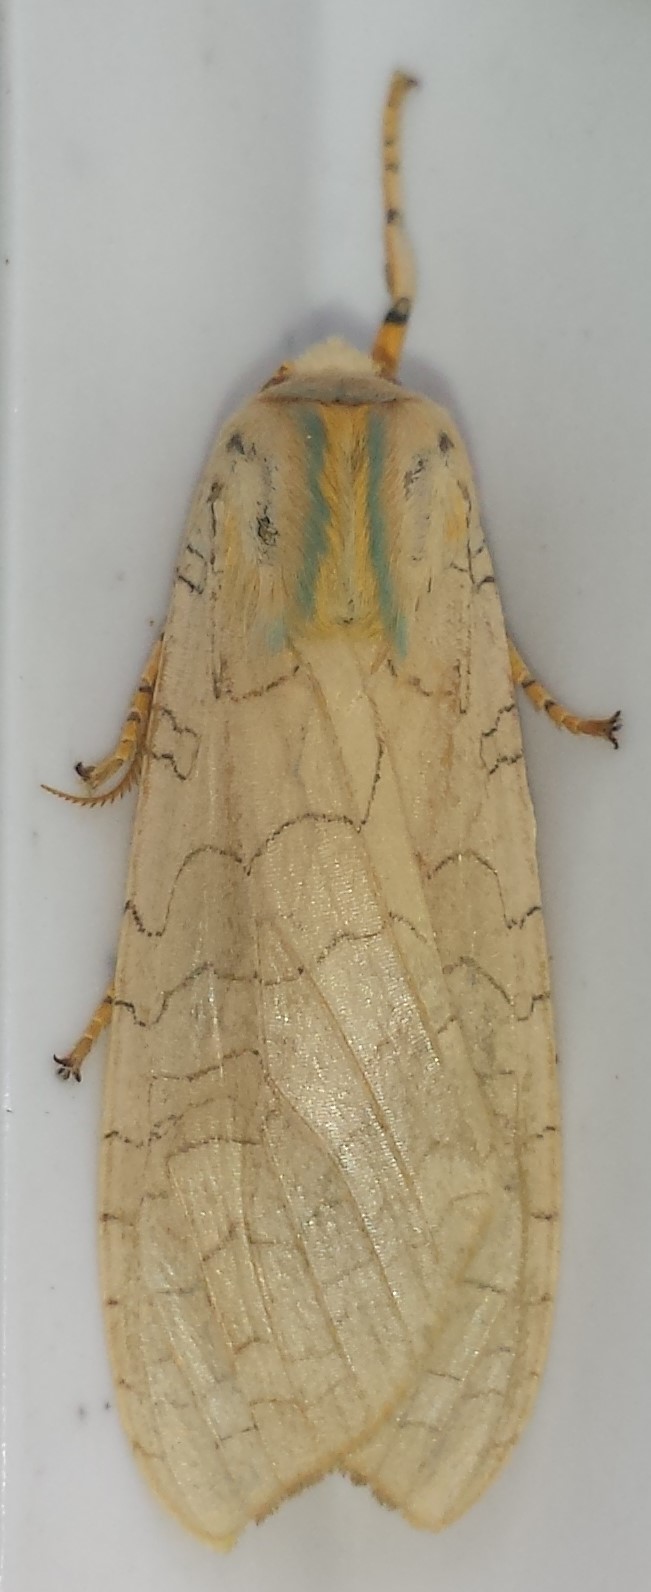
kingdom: Animalia
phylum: Arthropoda
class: Insecta
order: Lepidoptera
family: Erebidae
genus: Halysidota
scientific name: Halysidota tessellaris
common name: Banded tussock moth
